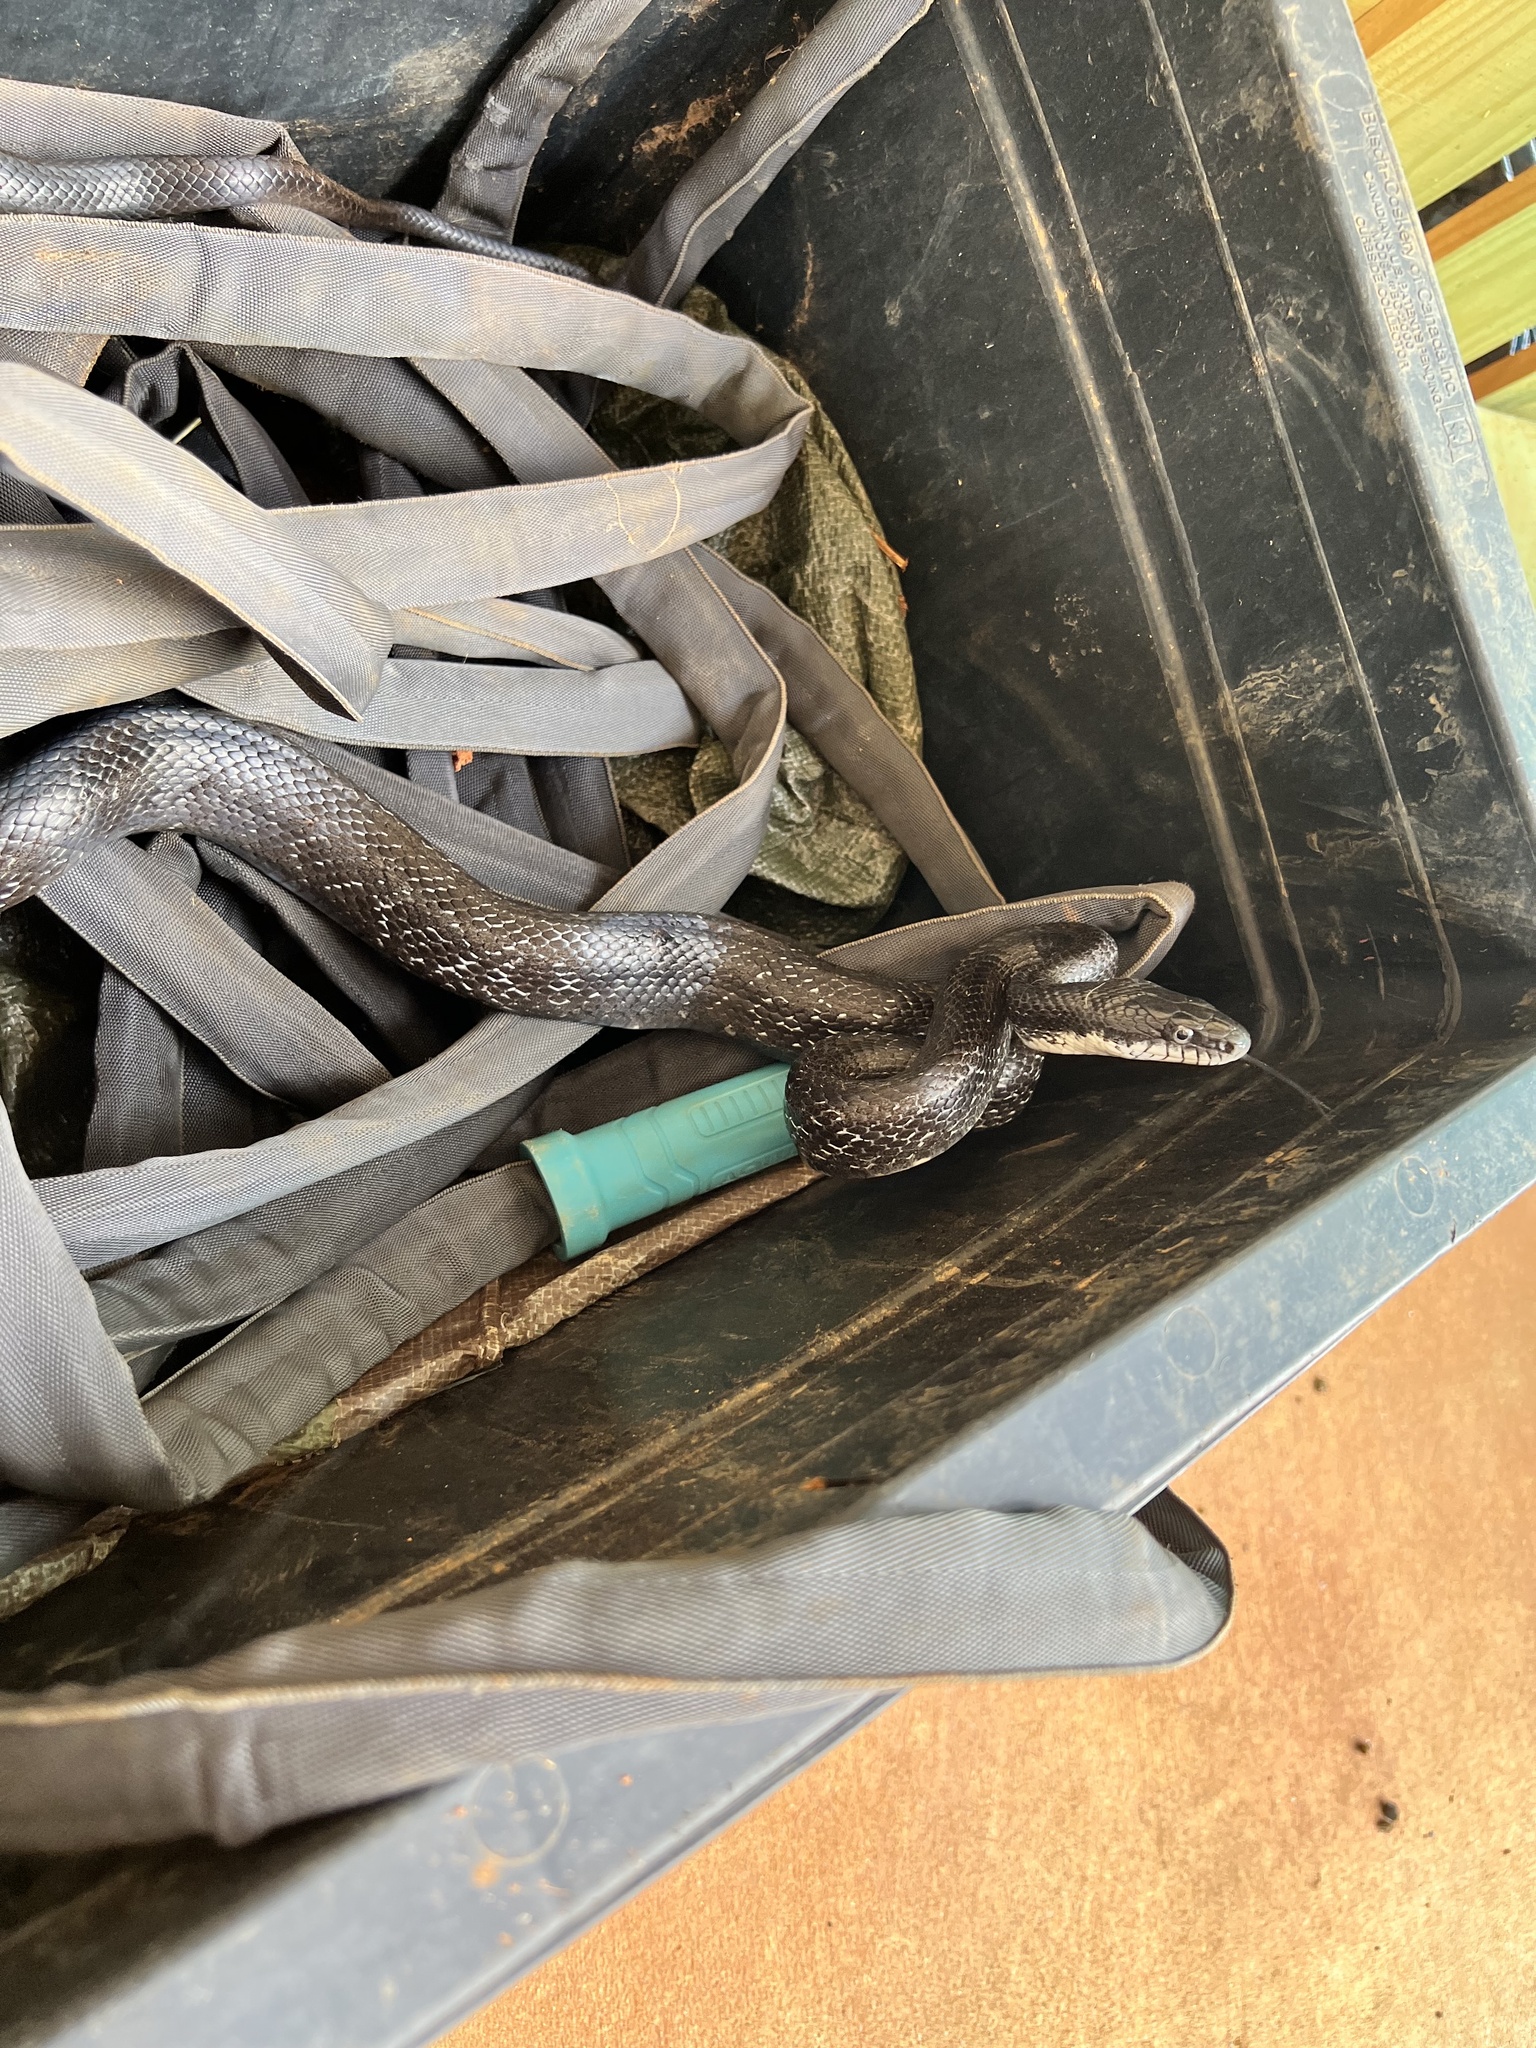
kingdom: Animalia
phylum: Chordata
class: Squamata
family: Colubridae
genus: Pantherophis
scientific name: Pantherophis alleghaniensis
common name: Eastern rat snake
